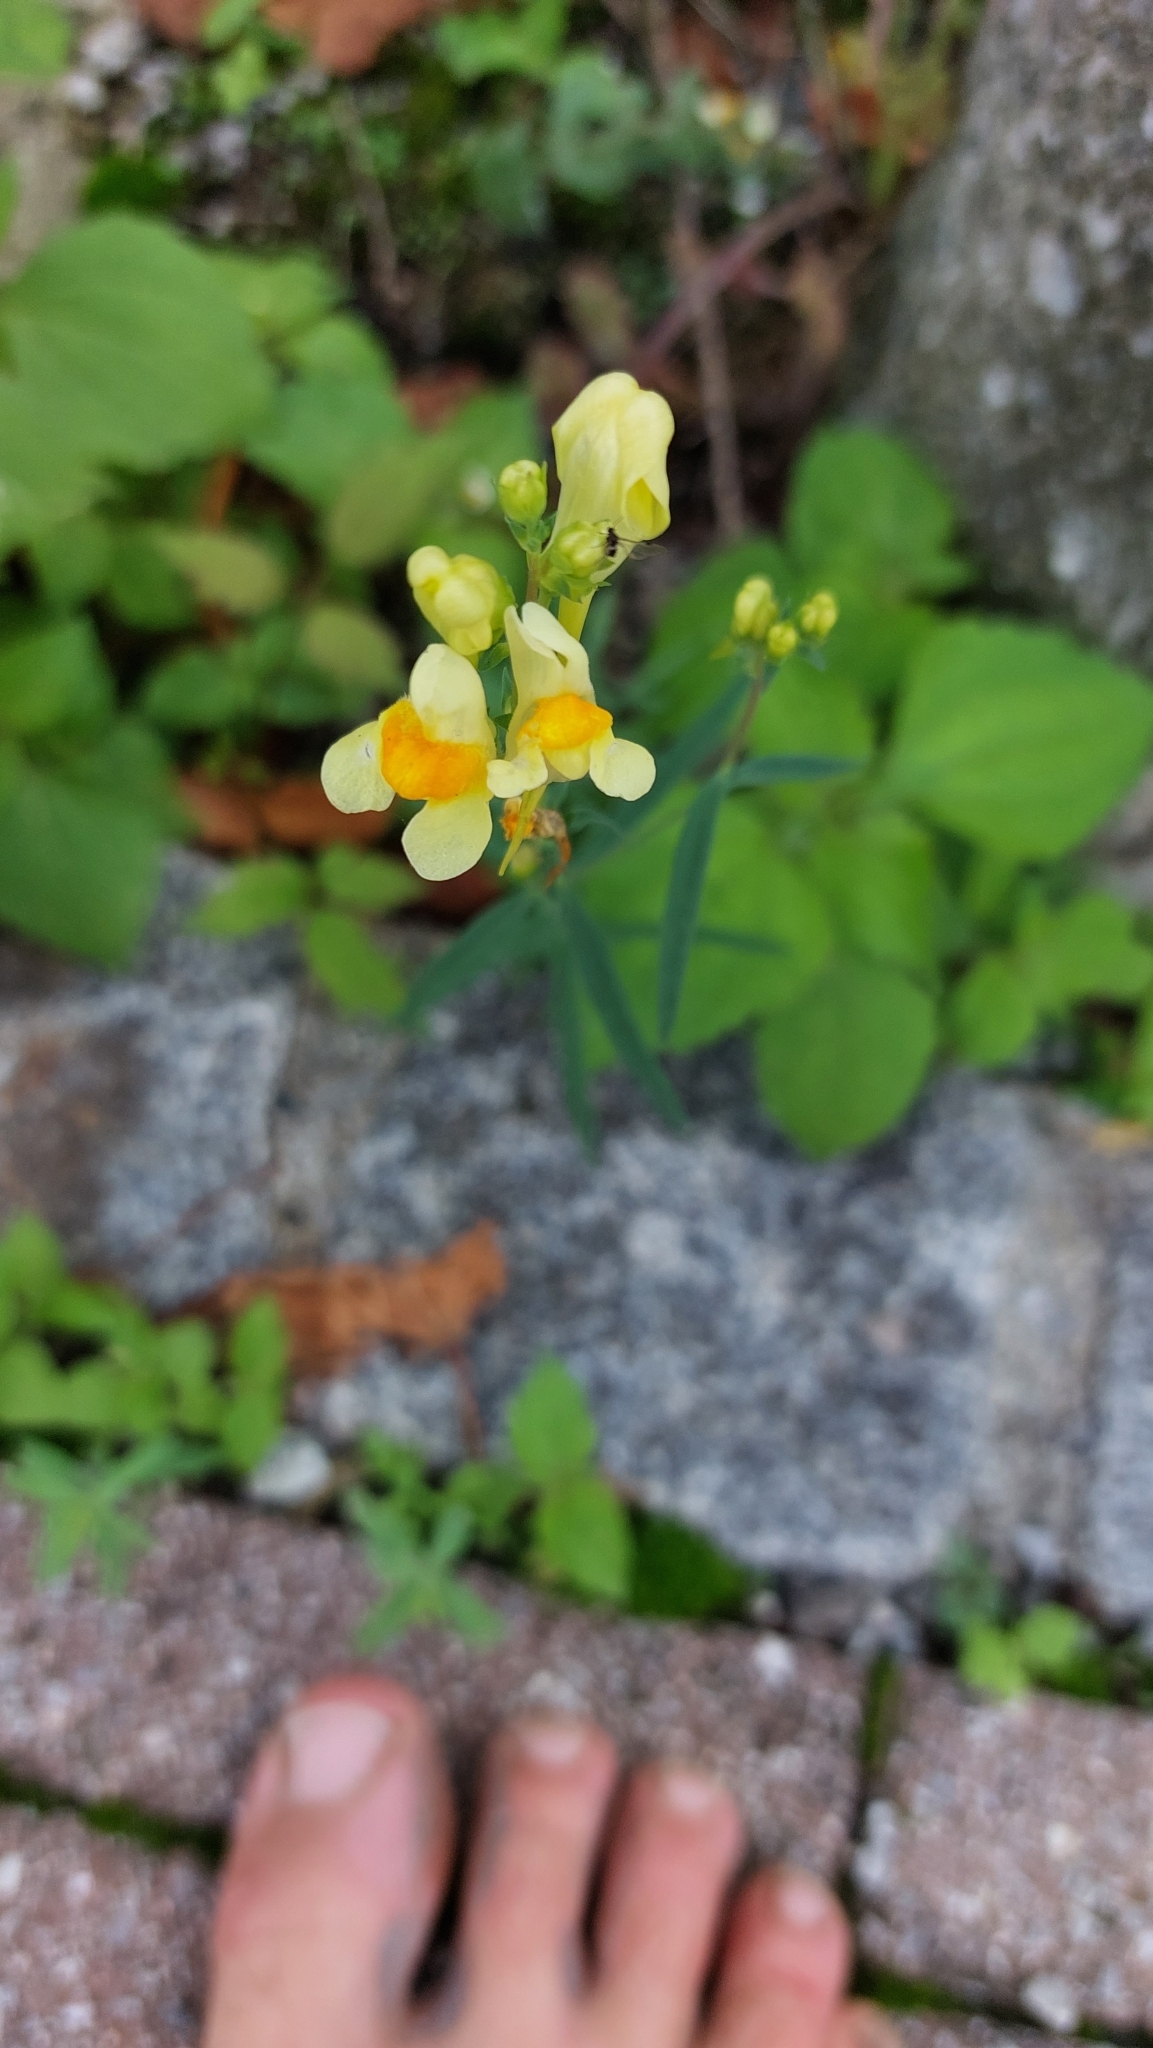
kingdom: Plantae
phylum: Tracheophyta
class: Magnoliopsida
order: Lamiales
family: Plantaginaceae
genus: Linaria
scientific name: Linaria vulgaris
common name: Butter and eggs
